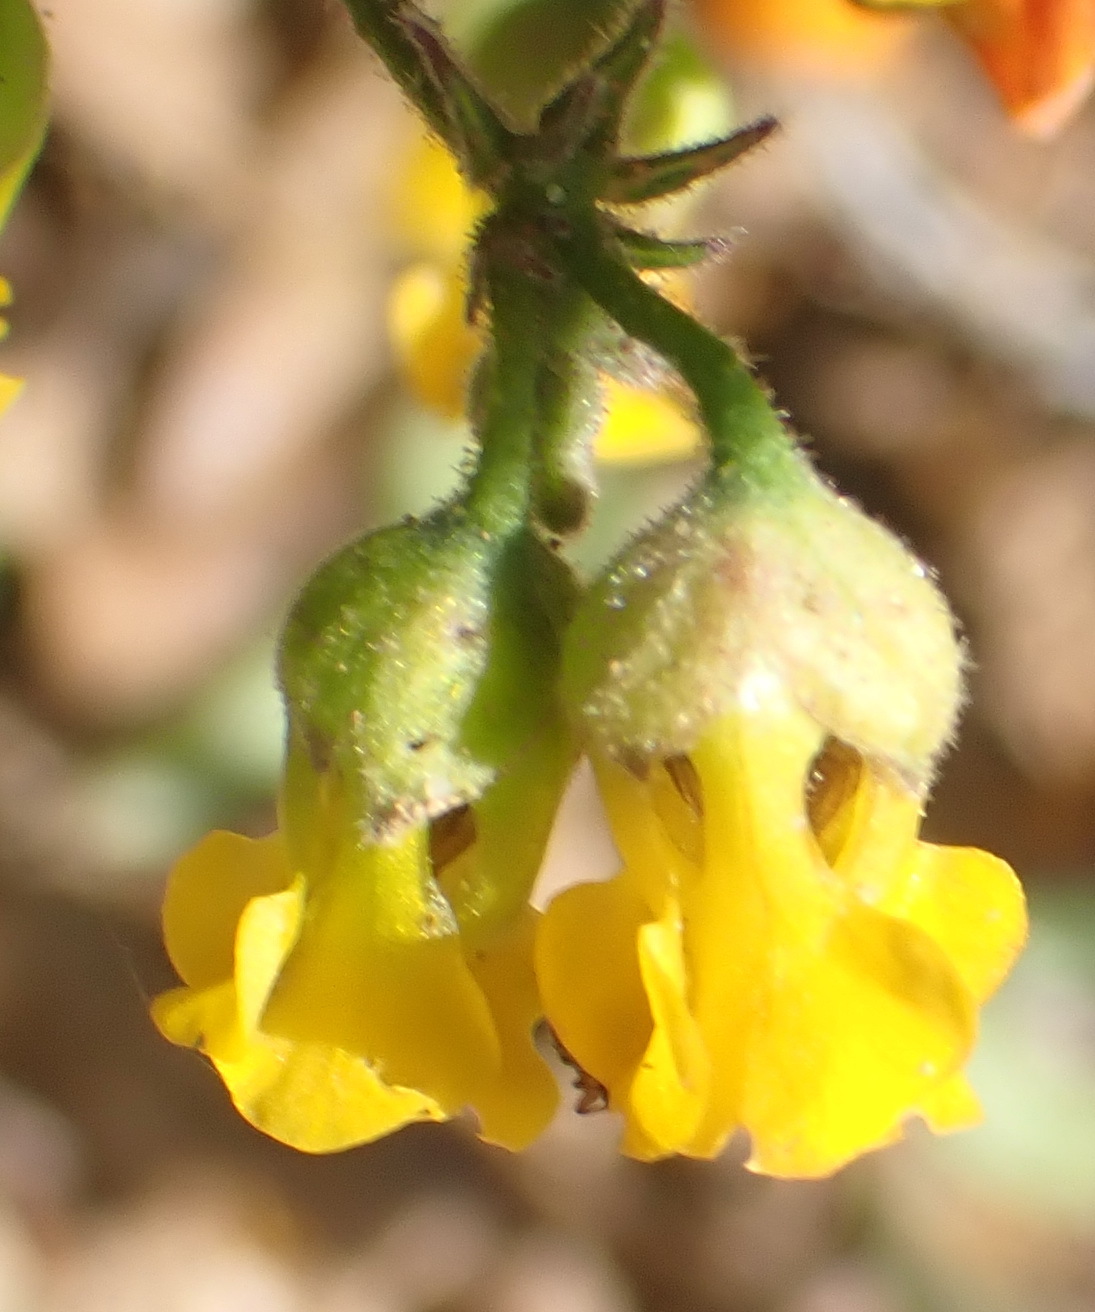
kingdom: Plantae
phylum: Tracheophyta
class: Magnoliopsida
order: Malvales
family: Malvaceae
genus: Hermannia
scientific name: Hermannia althaeoides
